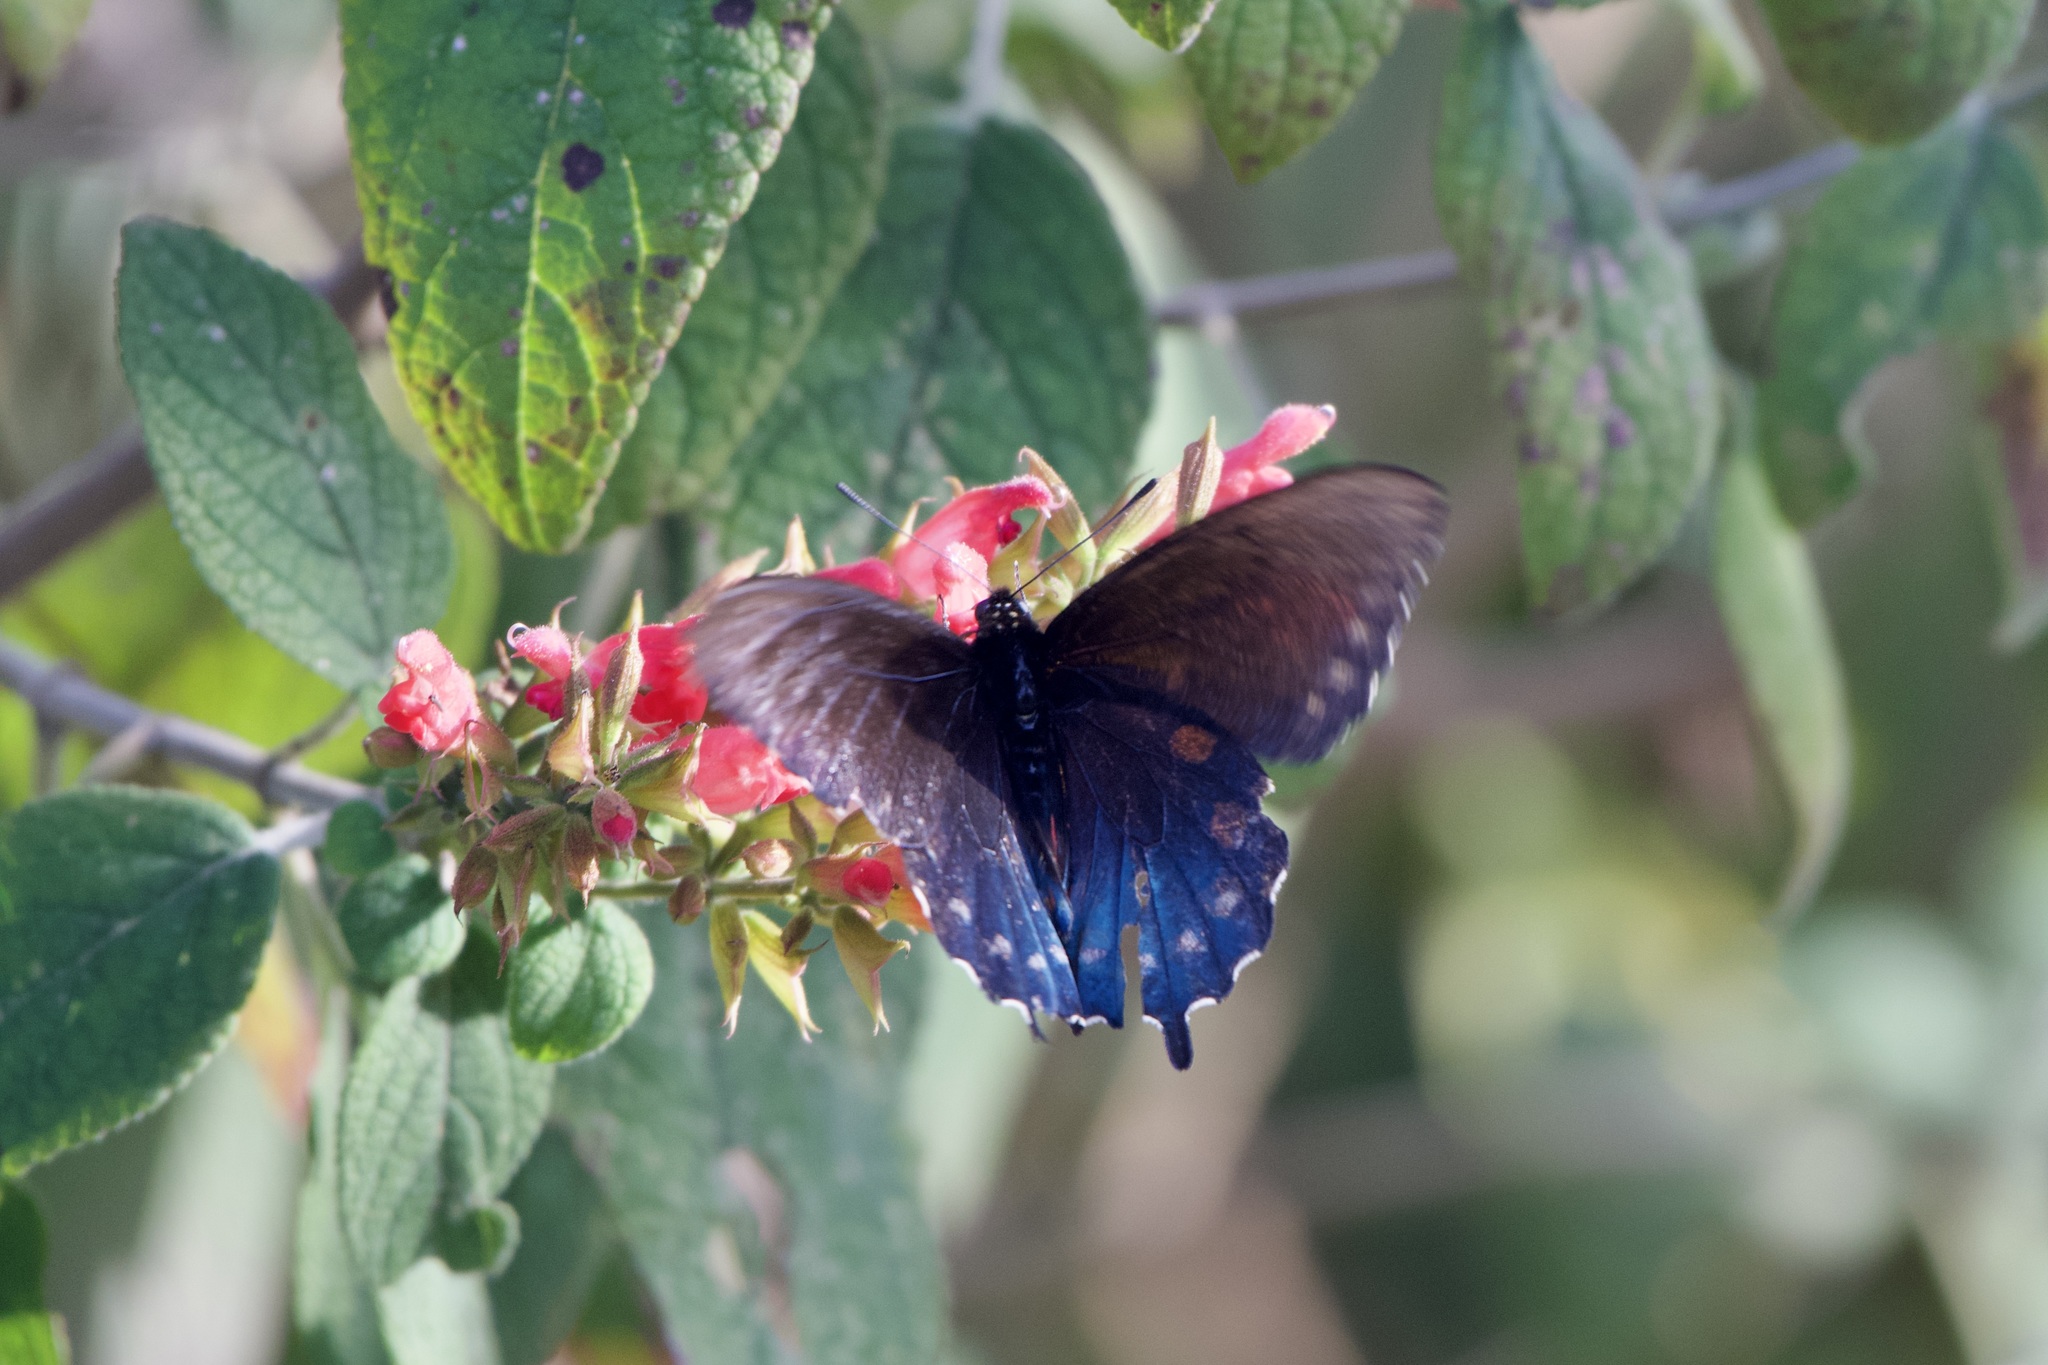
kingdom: Animalia
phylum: Arthropoda
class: Insecta
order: Lepidoptera
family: Papilionidae
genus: Battus
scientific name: Battus philenor
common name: Pipevine swallowtail
